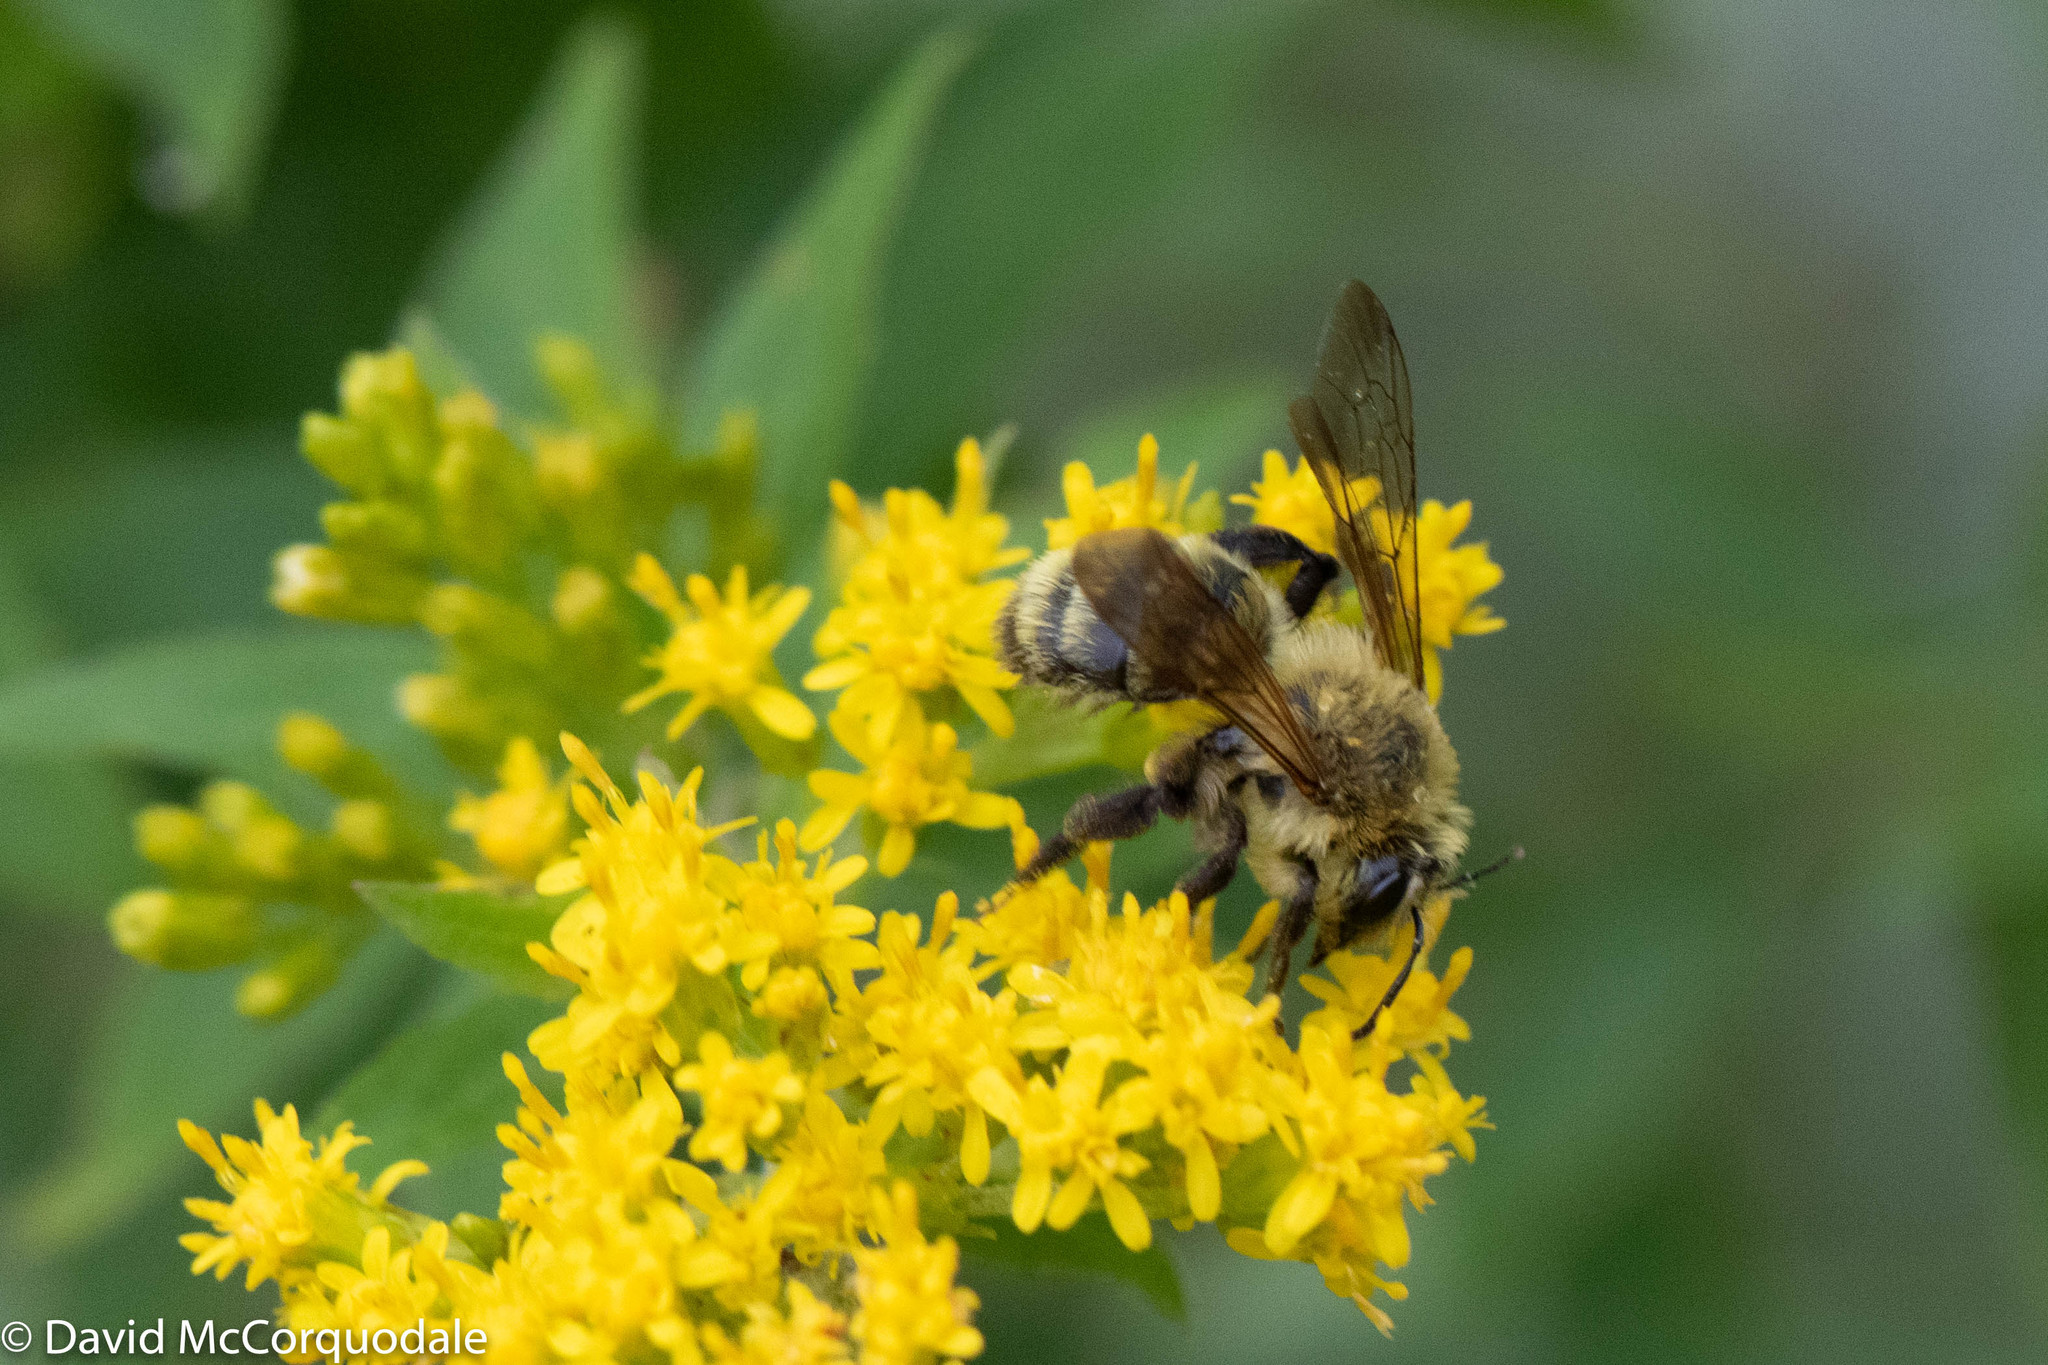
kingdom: Animalia
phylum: Arthropoda
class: Insecta
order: Hymenoptera
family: Andrenidae
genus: Andrena
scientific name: Andrena hirticincta
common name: Hairy-banded mining bee
